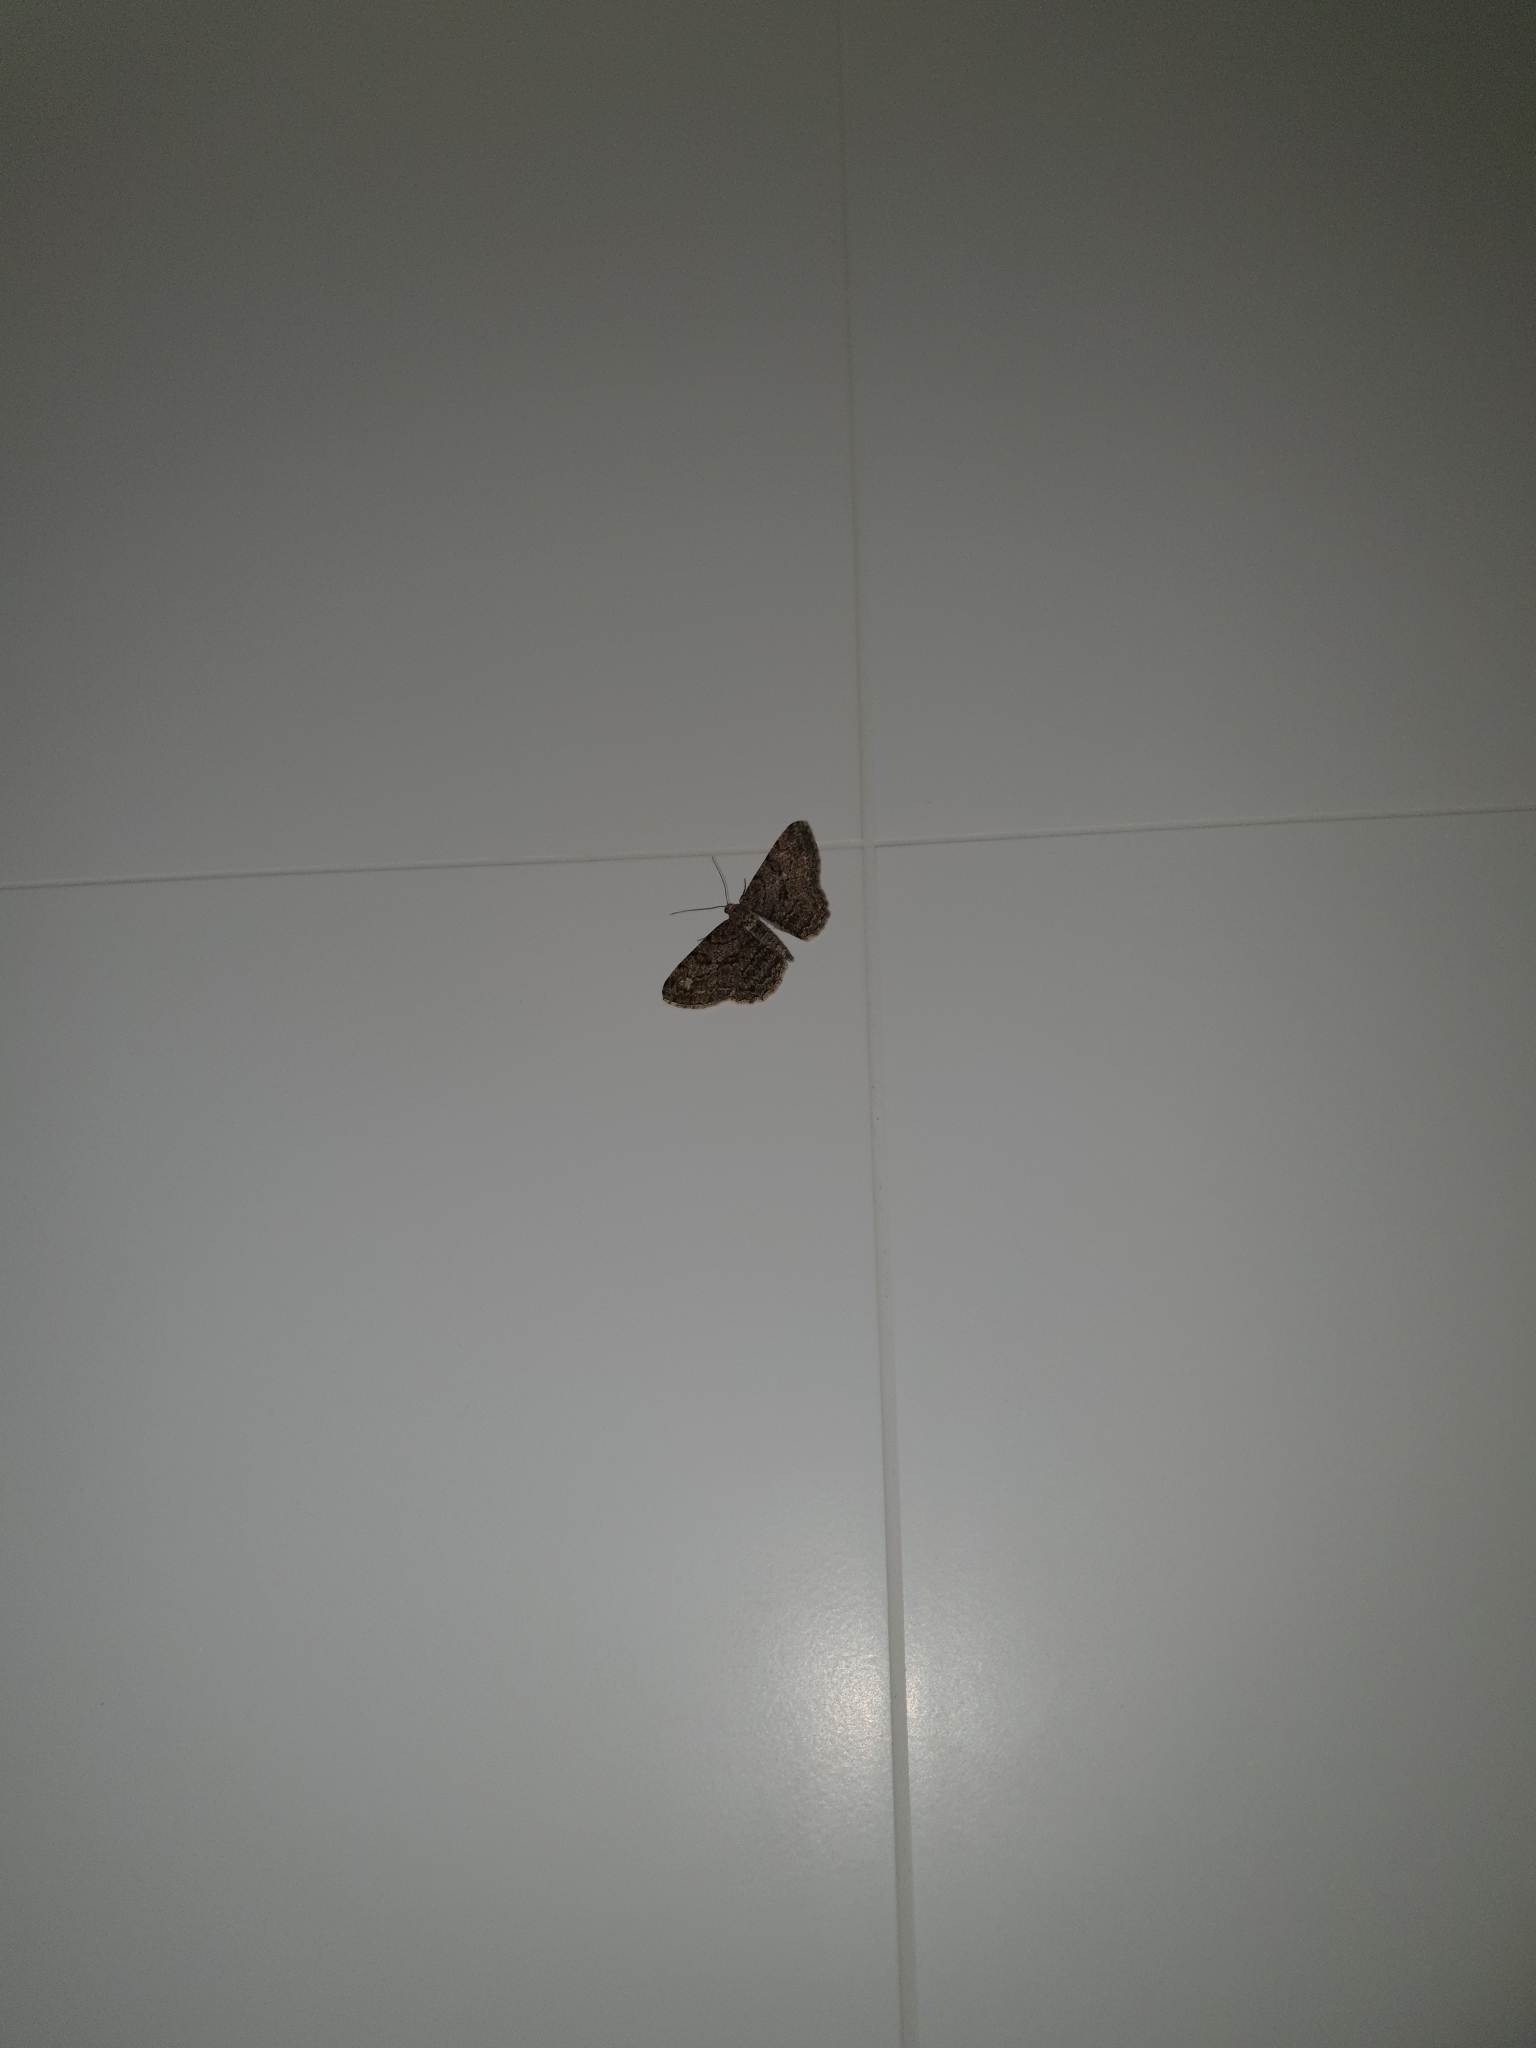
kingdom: Animalia
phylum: Arthropoda
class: Insecta
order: Lepidoptera
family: Geometridae
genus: Peribatodes
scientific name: Peribatodes rhomboidaria
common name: Willow beauty
